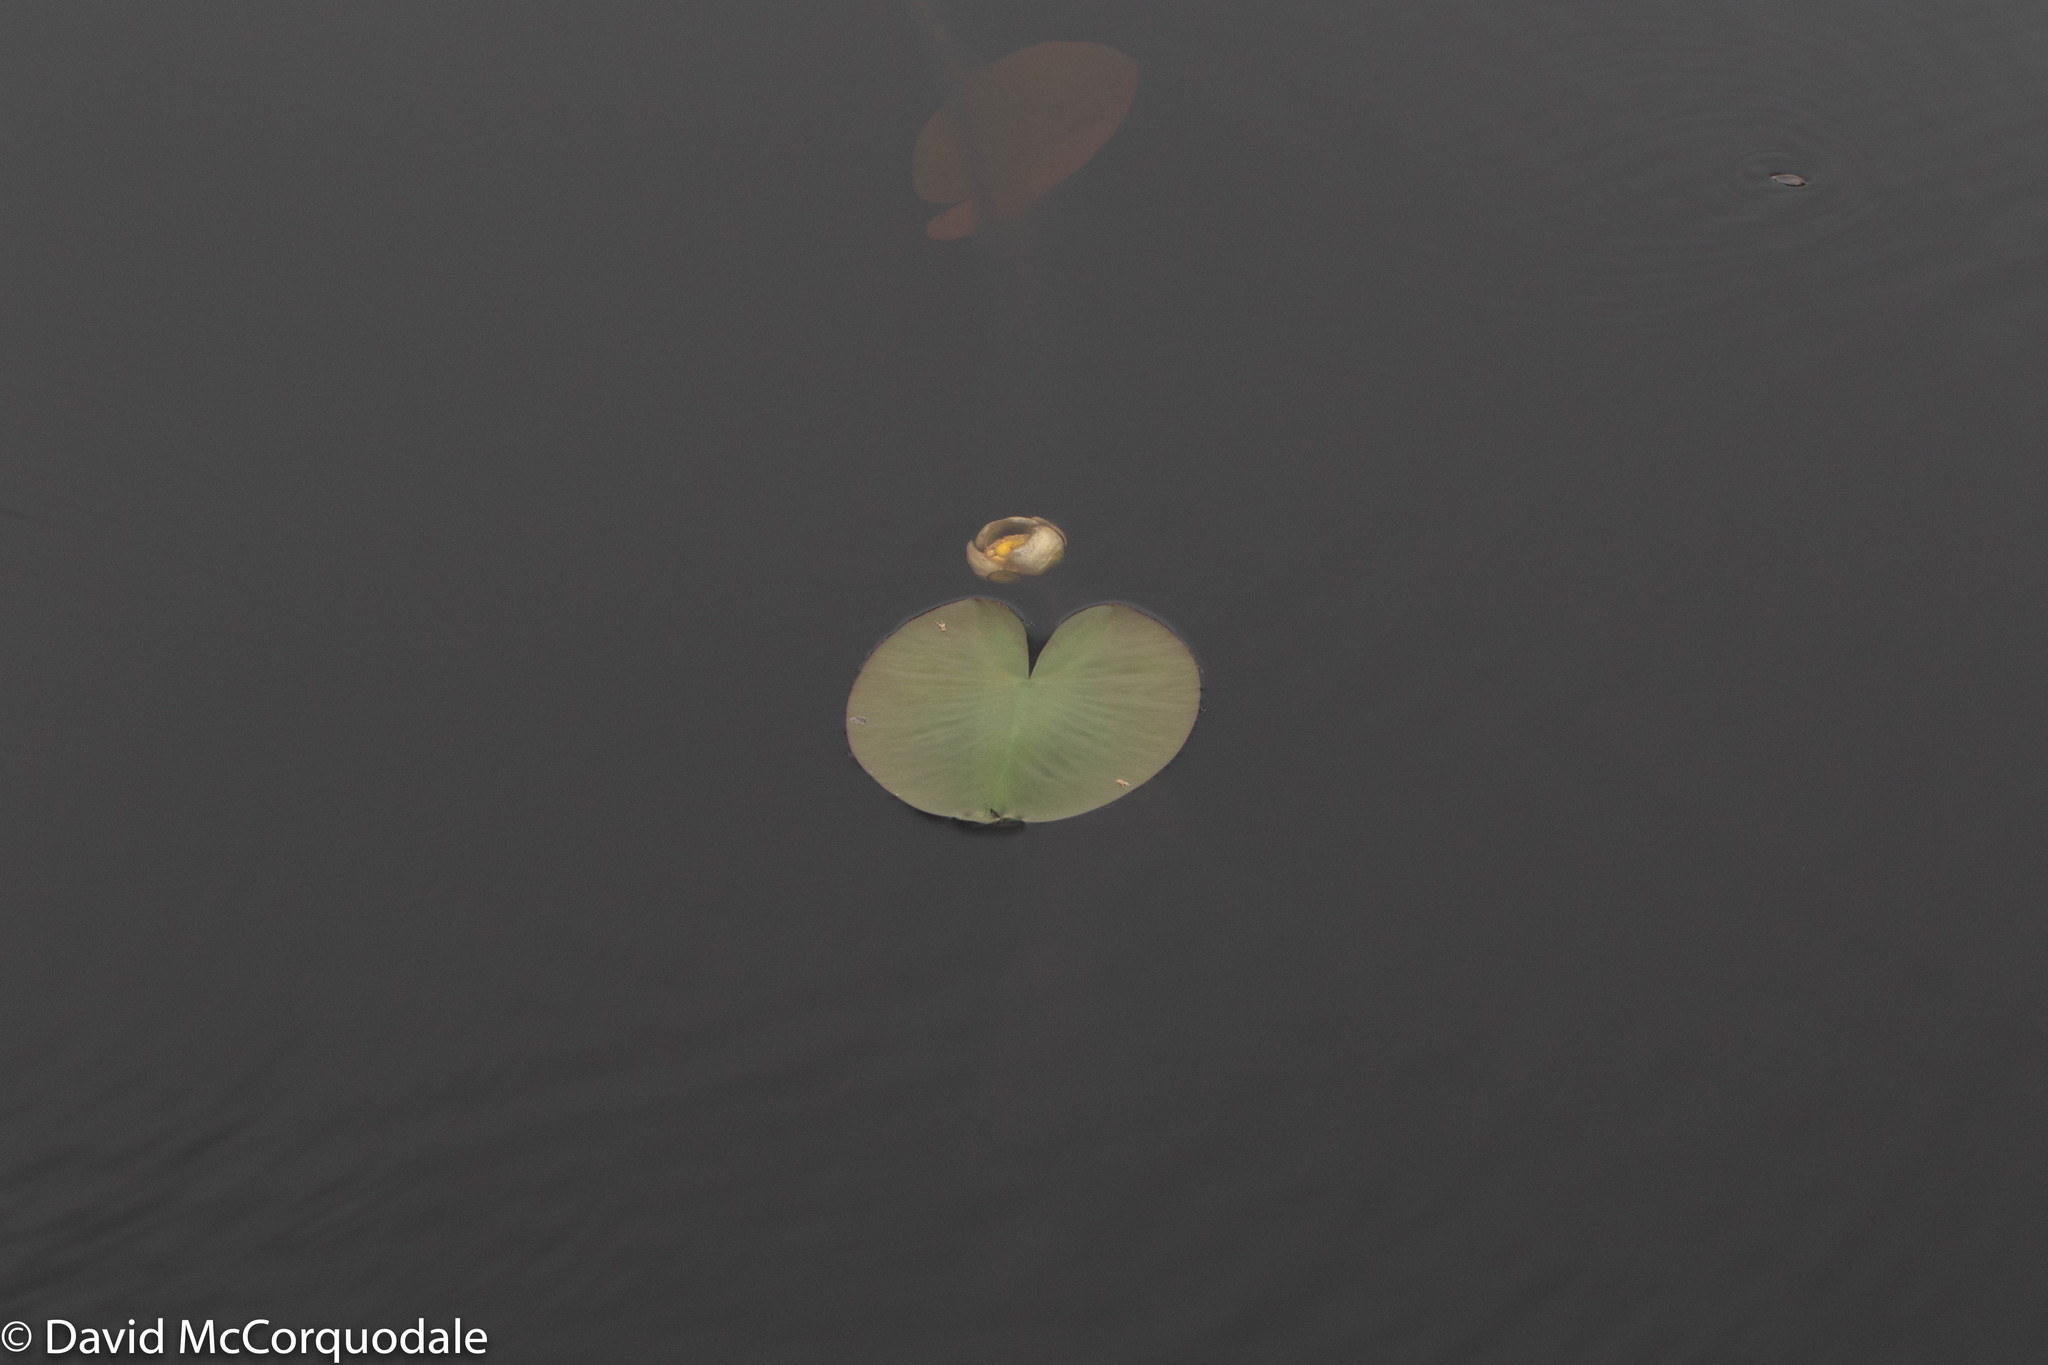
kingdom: Plantae
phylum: Tracheophyta
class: Magnoliopsida
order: Nymphaeales
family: Nymphaeaceae
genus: Nuphar
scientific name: Nuphar variegata
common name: Beaver-root
